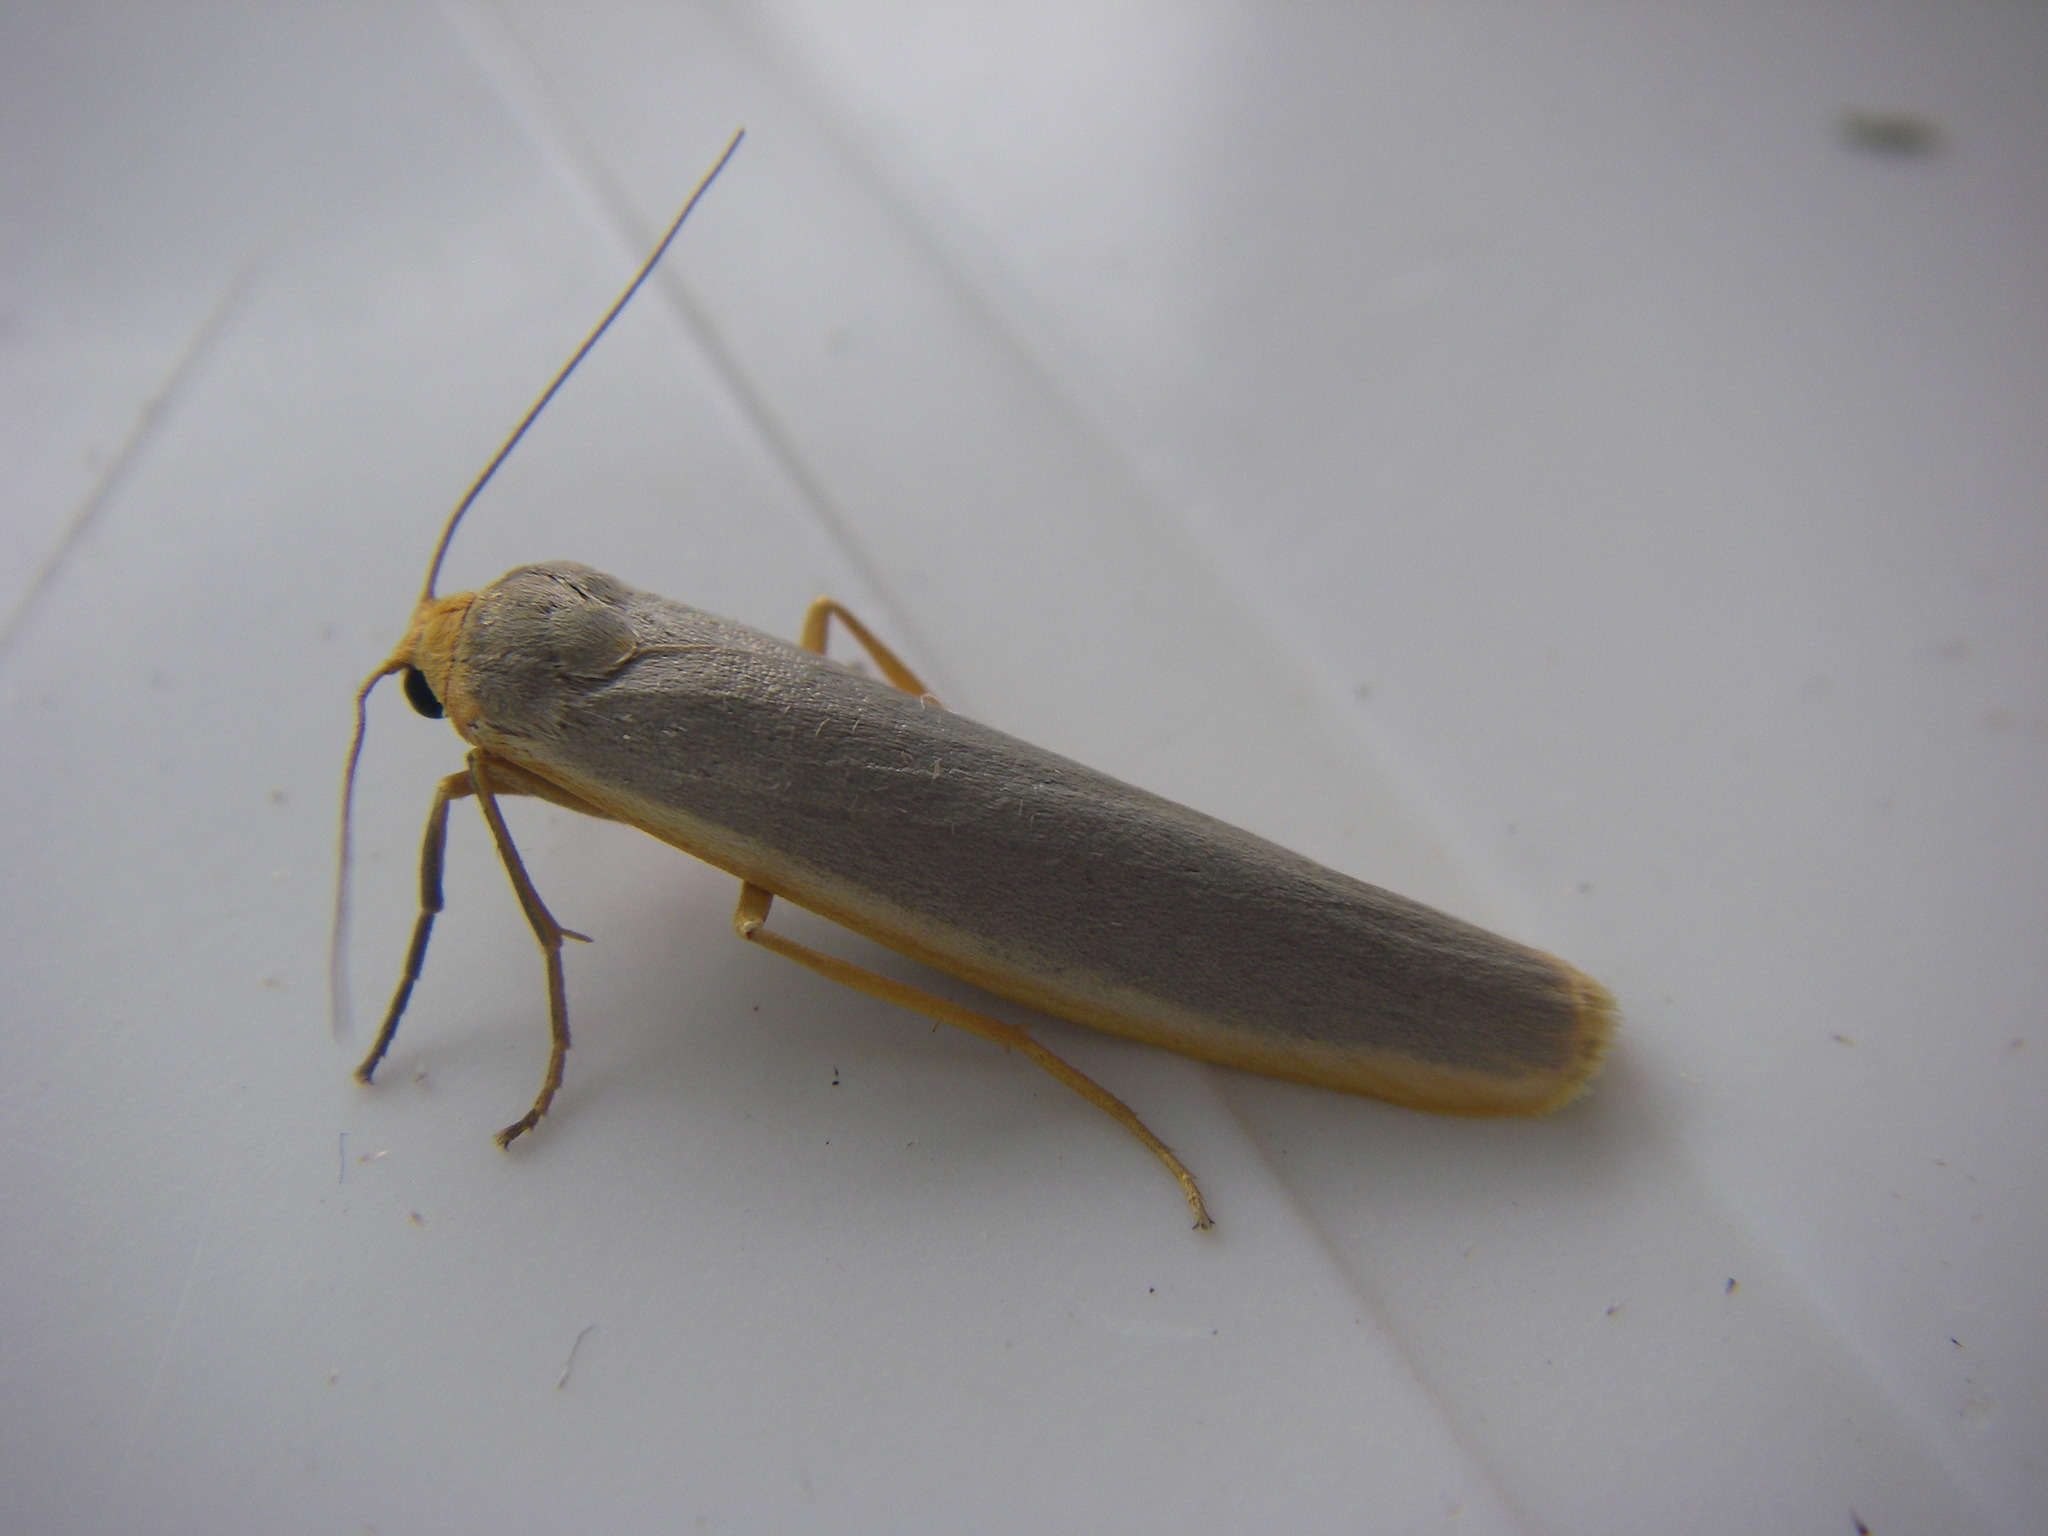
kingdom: Animalia
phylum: Arthropoda
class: Insecta
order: Lepidoptera
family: Erebidae
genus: Manulea
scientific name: Manulea complana
